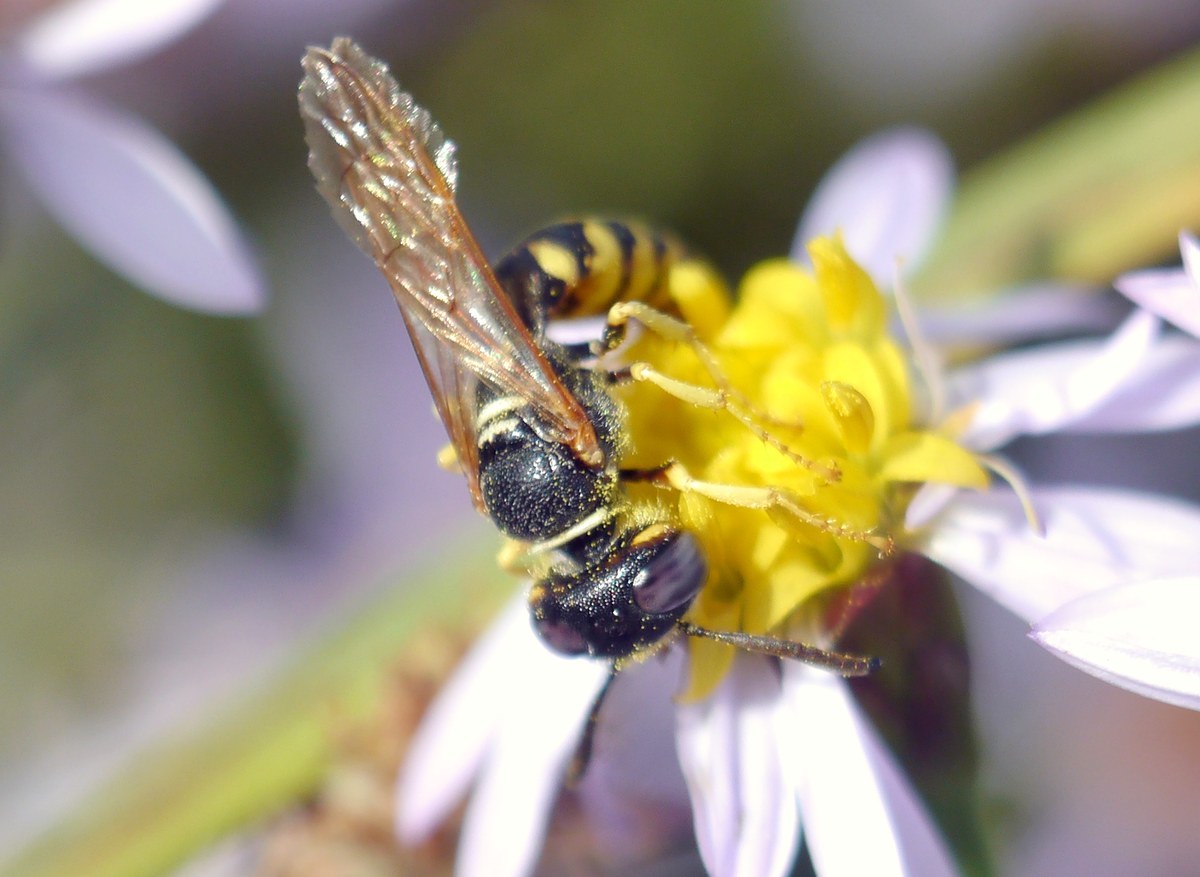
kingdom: Animalia
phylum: Arthropoda
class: Insecta
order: Hymenoptera
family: Crabronidae
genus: Philanthus
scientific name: Philanthus triangulum
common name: Bee wolf
